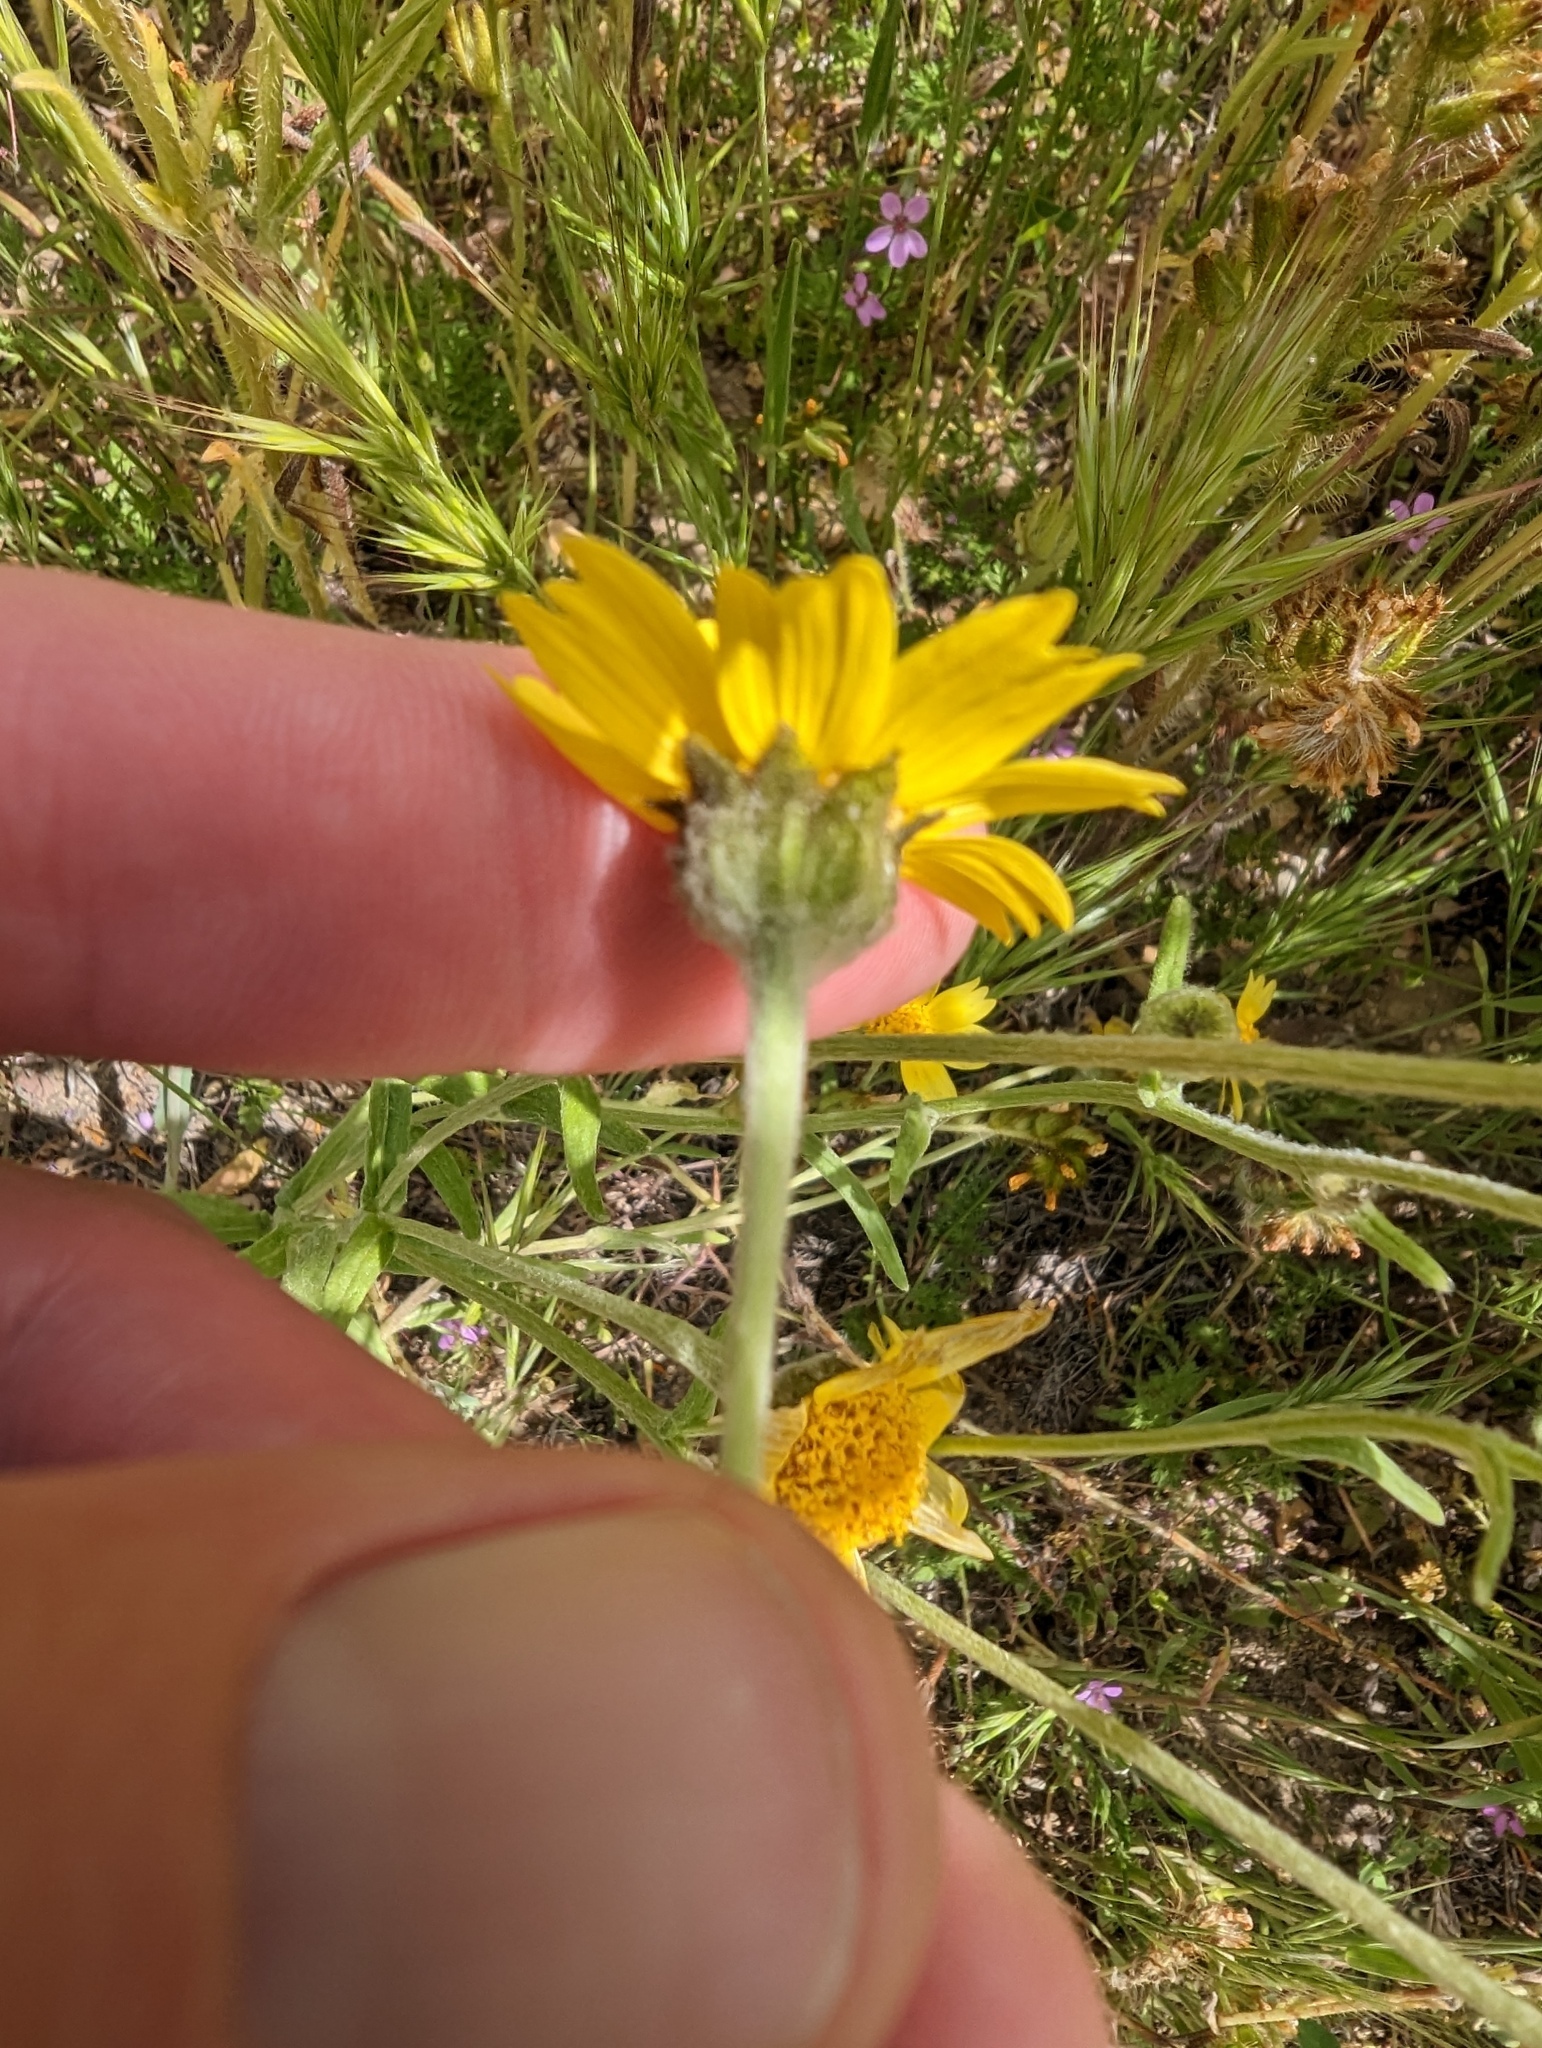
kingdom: Plantae
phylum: Tracheophyta
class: Magnoliopsida
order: Asterales
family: Asteraceae
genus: Monolopia
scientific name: Monolopia lanceolata
